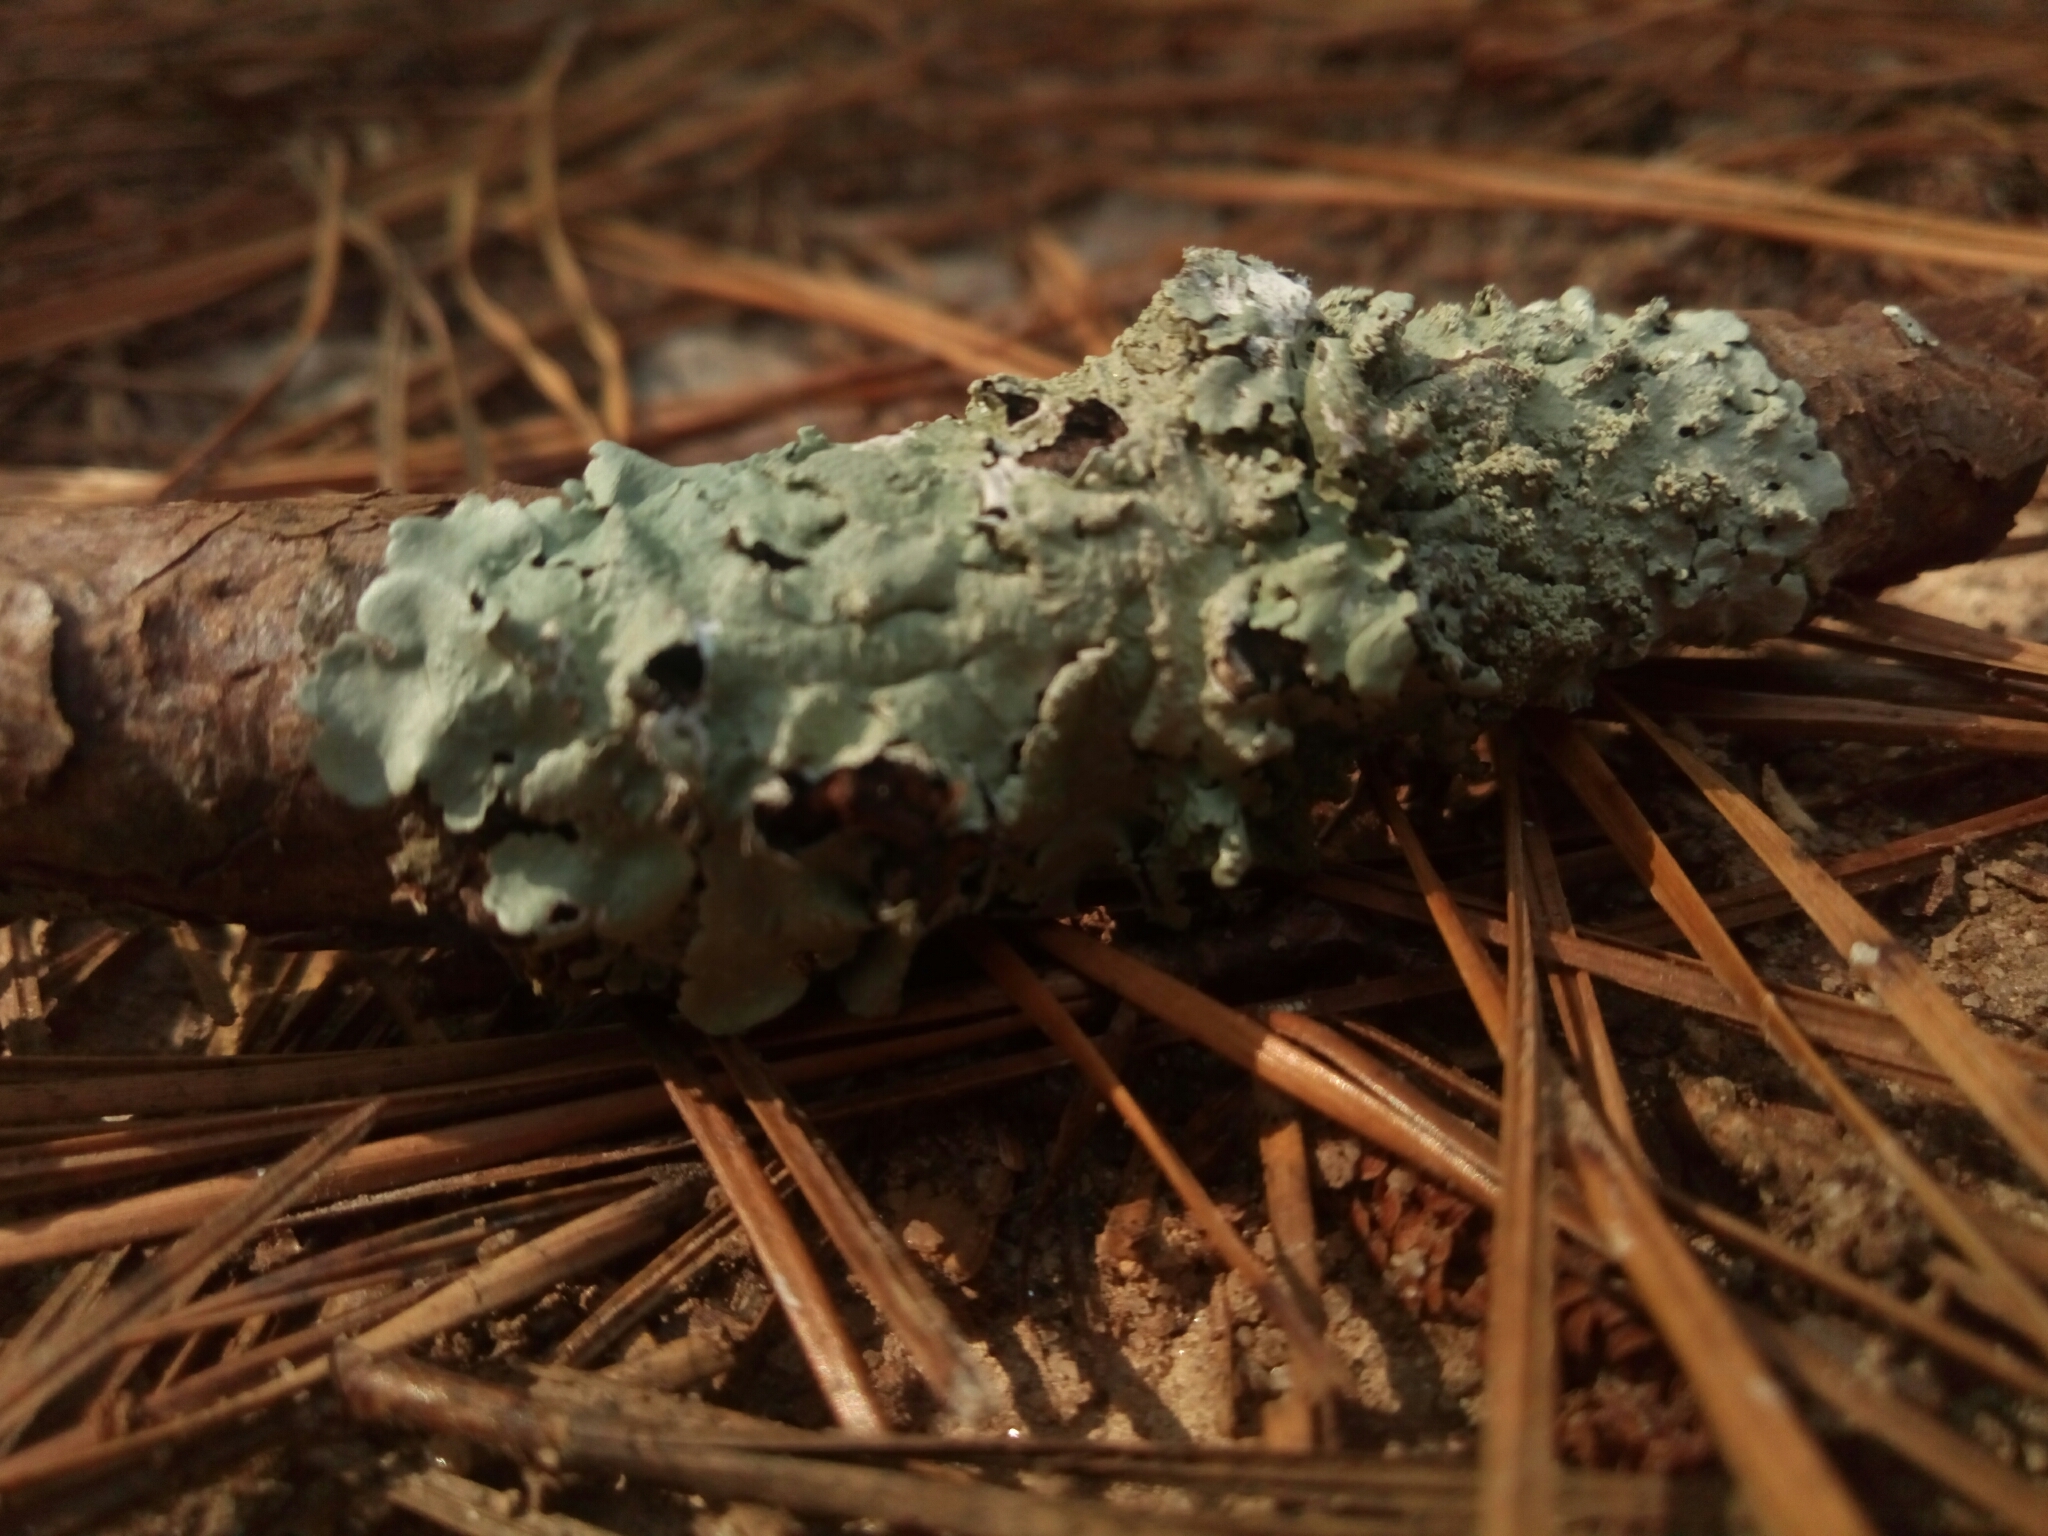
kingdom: Fungi
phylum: Ascomycota
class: Lecanoromycetes
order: Lecanorales
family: Parmeliaceae
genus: Flavoparmelia
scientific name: Flavoparmelia caperata
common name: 40-mile per hour lichen
